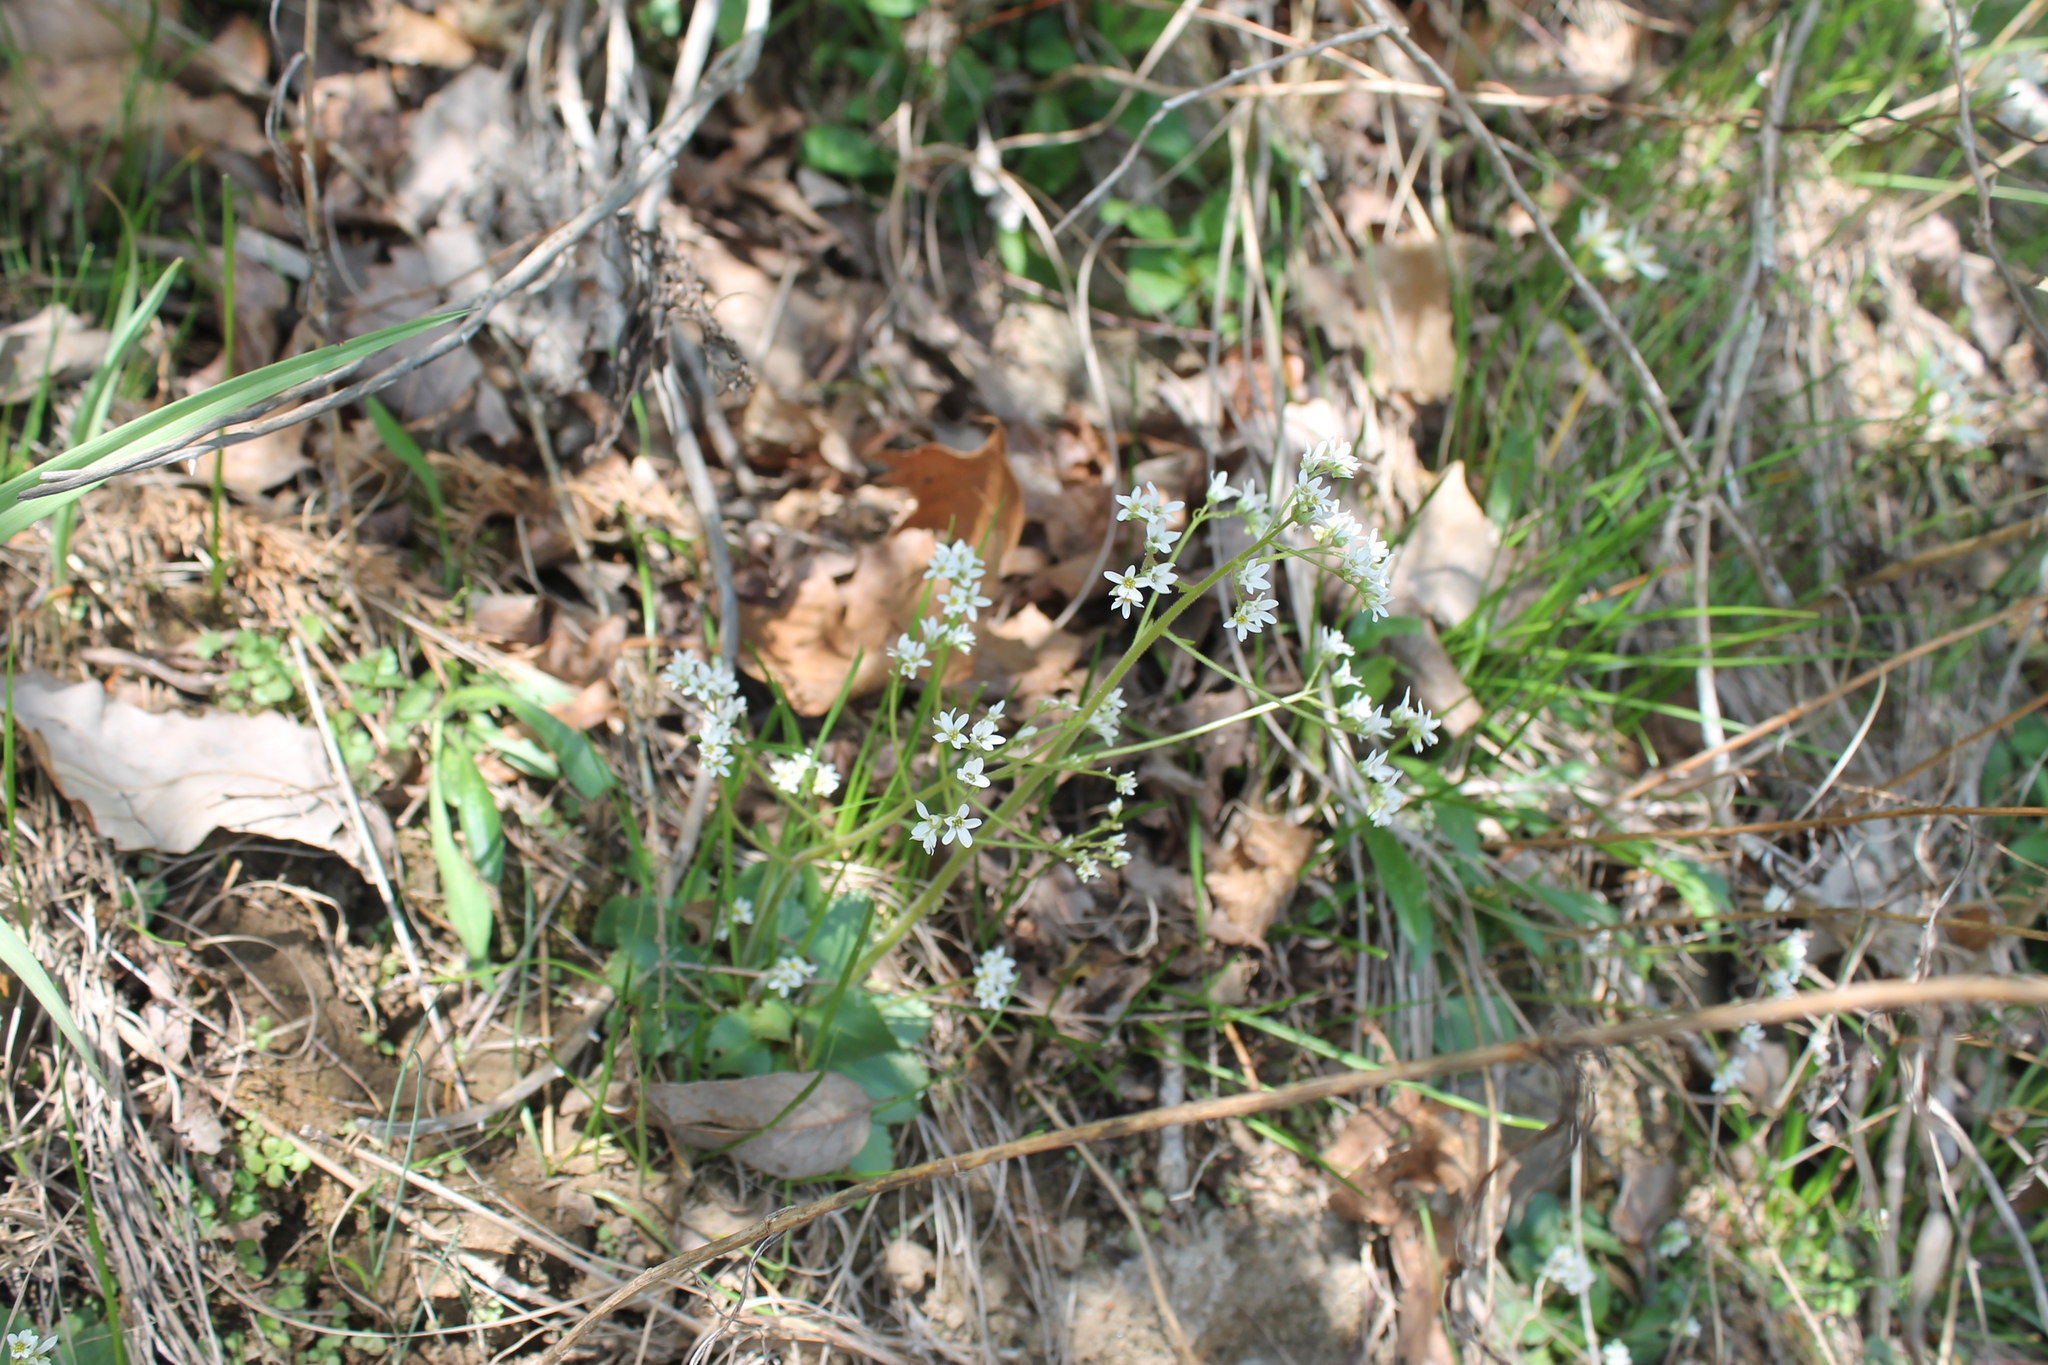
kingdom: Plantae
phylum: Tracheophyta
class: Magnoliopsida
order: Saxifragales
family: Saxifragaceae
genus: Micranthes
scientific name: Micranthes virginiensis
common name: Early saxifrage
